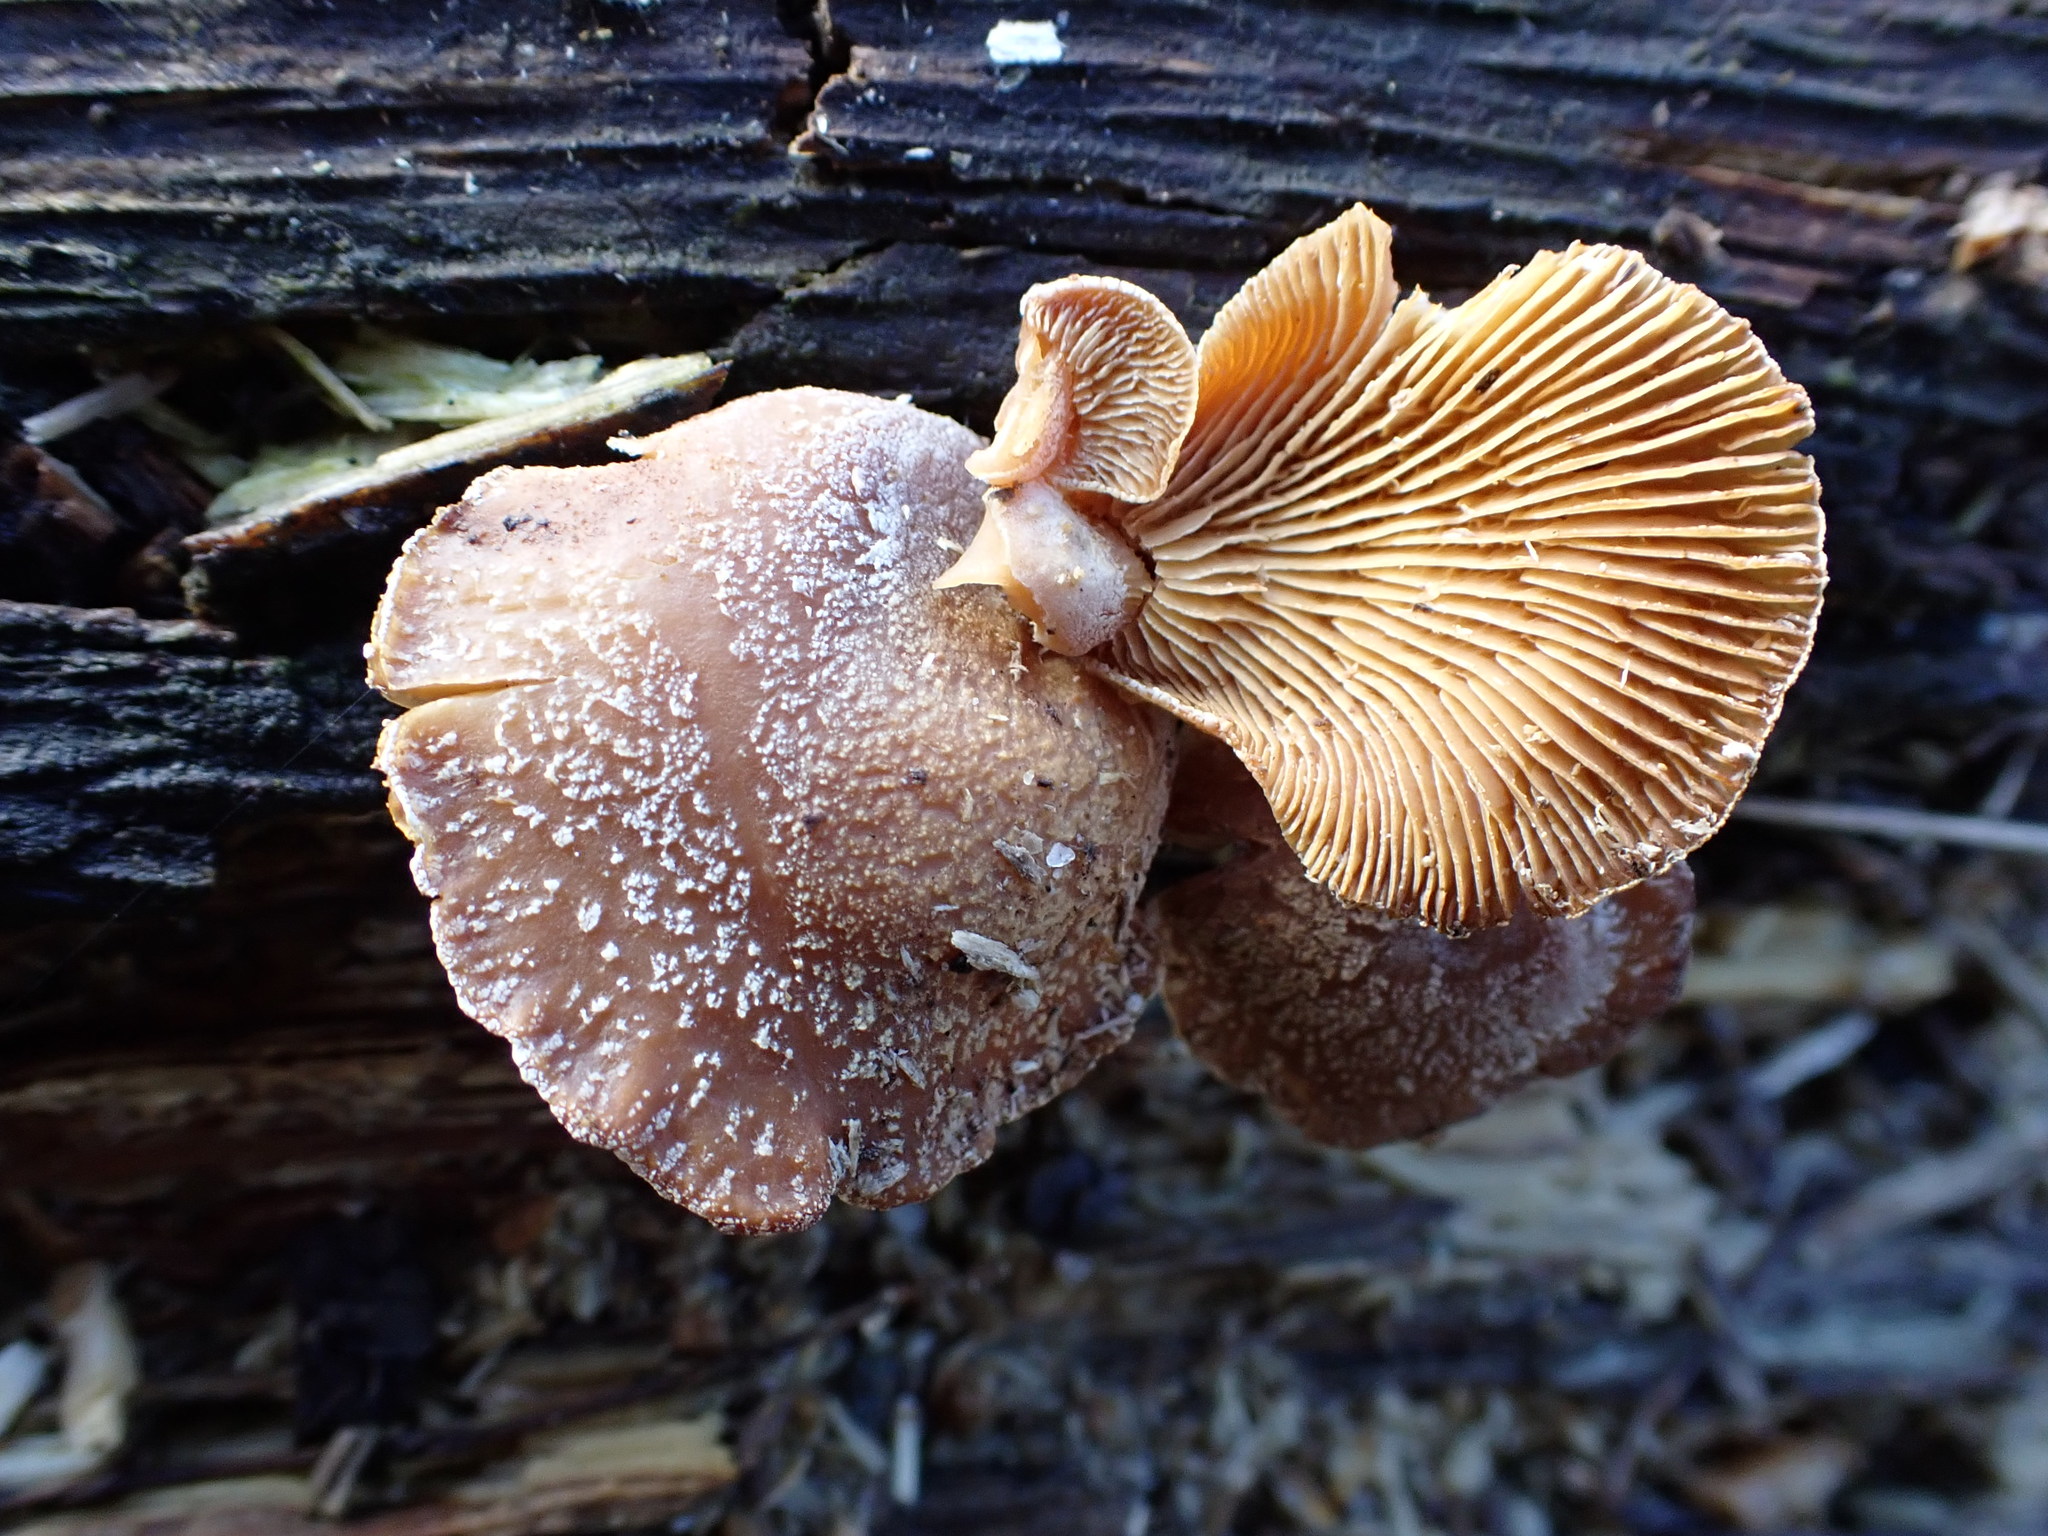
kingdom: Fungi
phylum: Basidiomycota
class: Agaricomycetes
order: Agaricales
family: Mycenaceae
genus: Panellus
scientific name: Panellus stipticus
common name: Bitter oysterling
